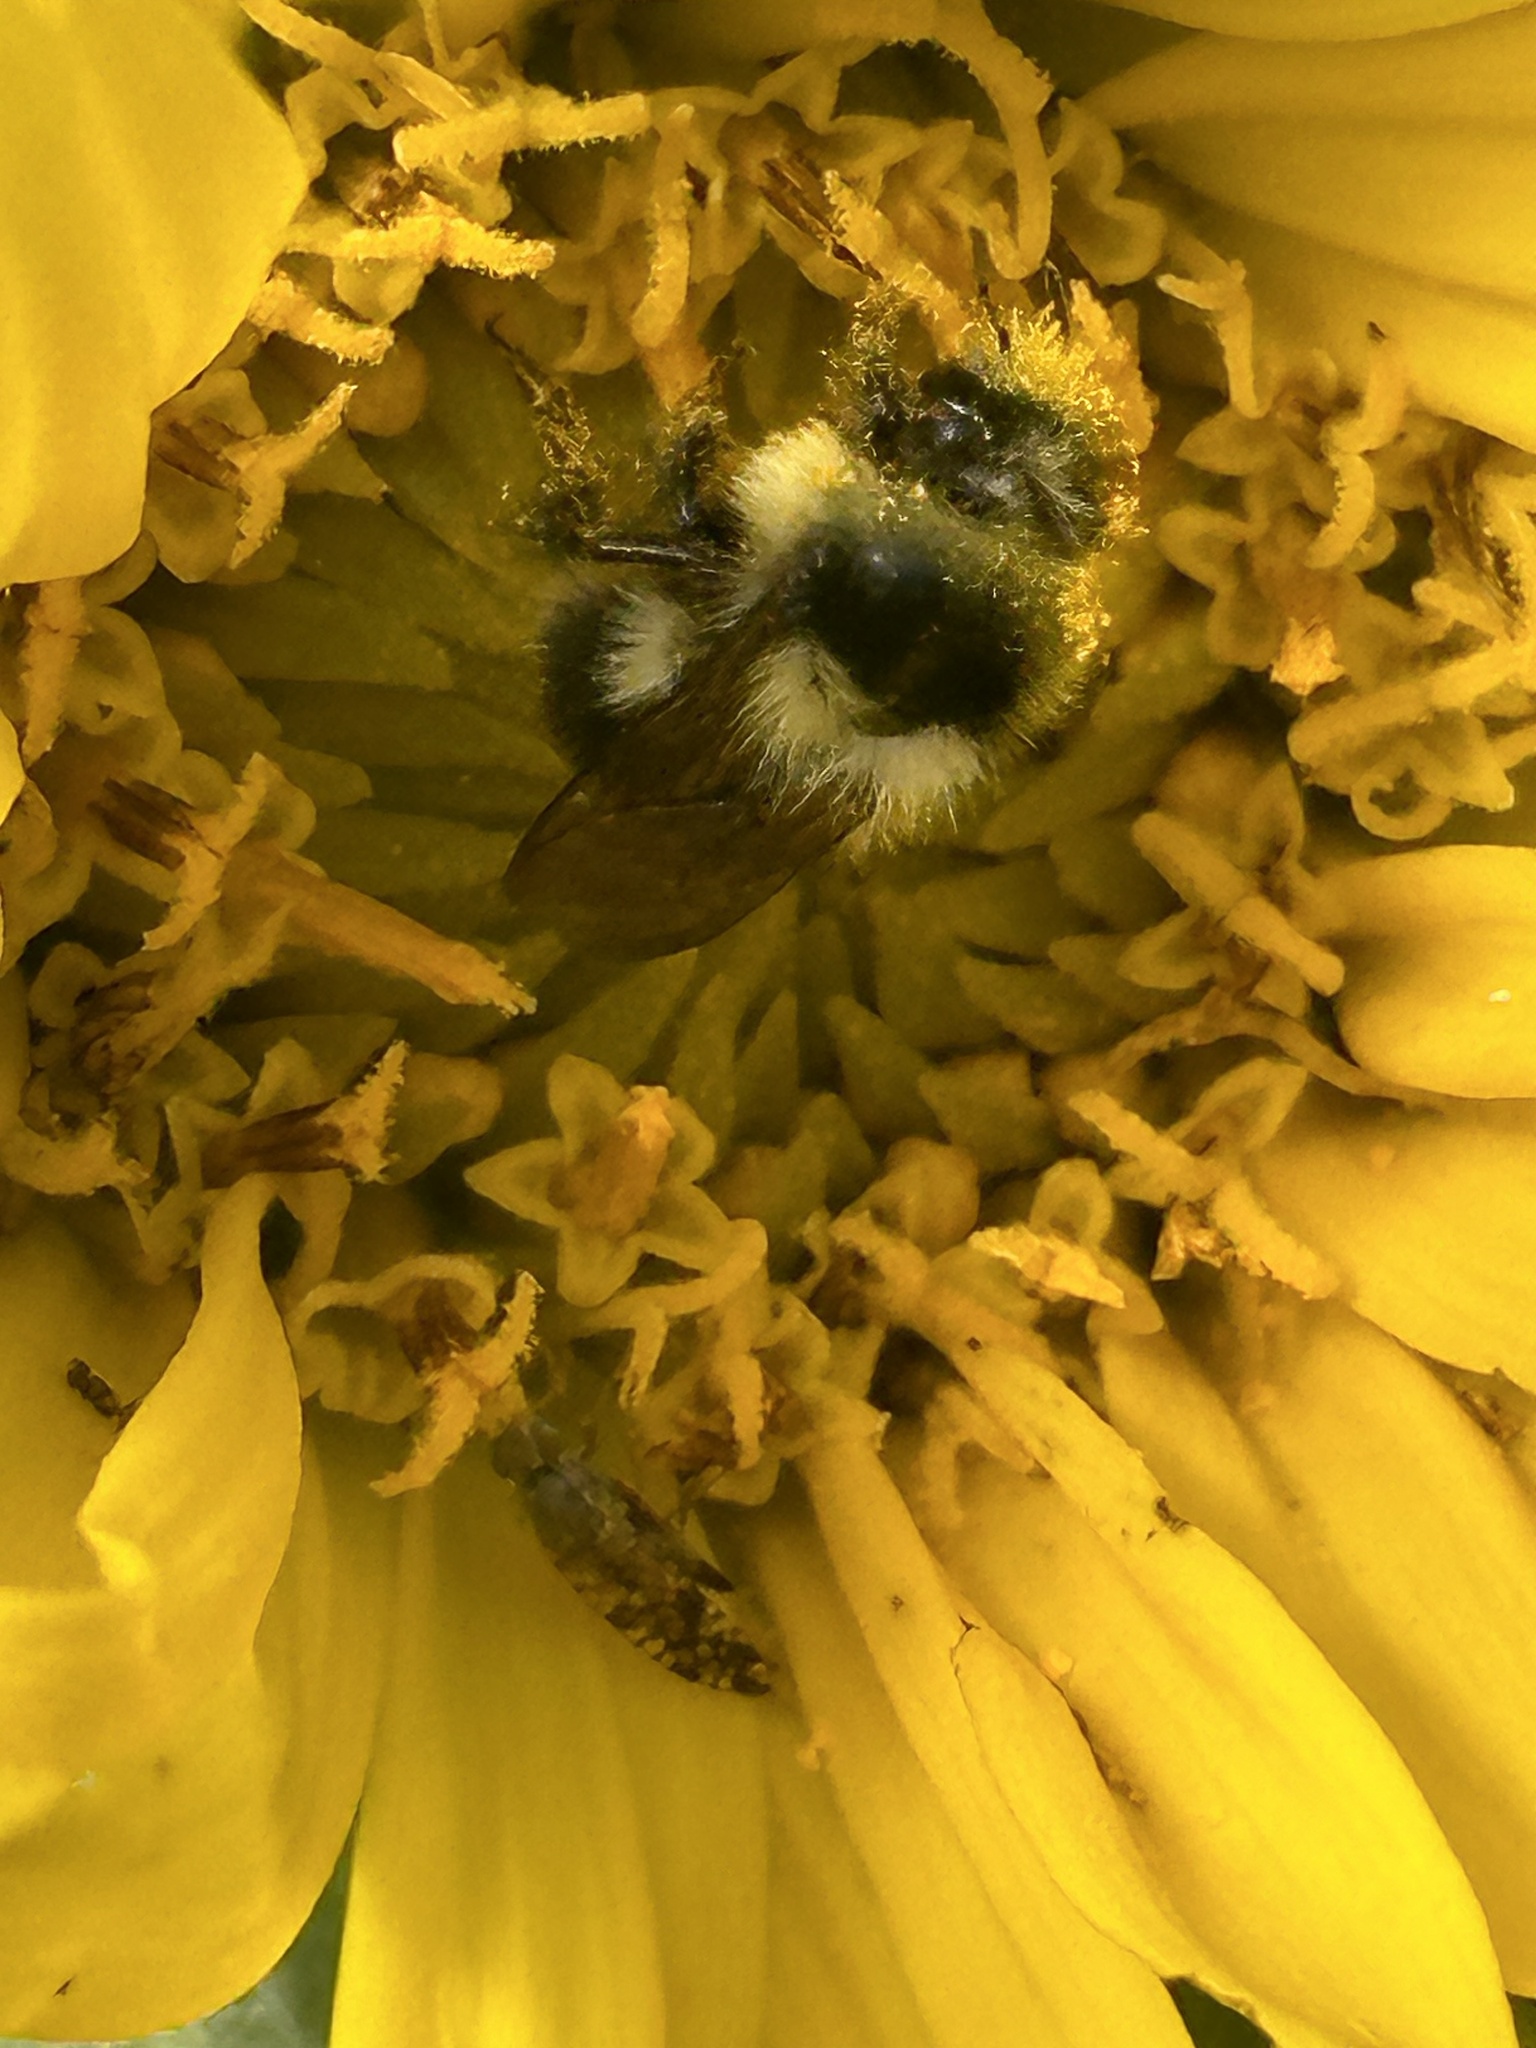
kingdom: Animalia
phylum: Arthropoda
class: Insecta
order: Hymenoptera
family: Apidae
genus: Bombus
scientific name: Bombus melanopygus
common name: Black tail bumble bee
